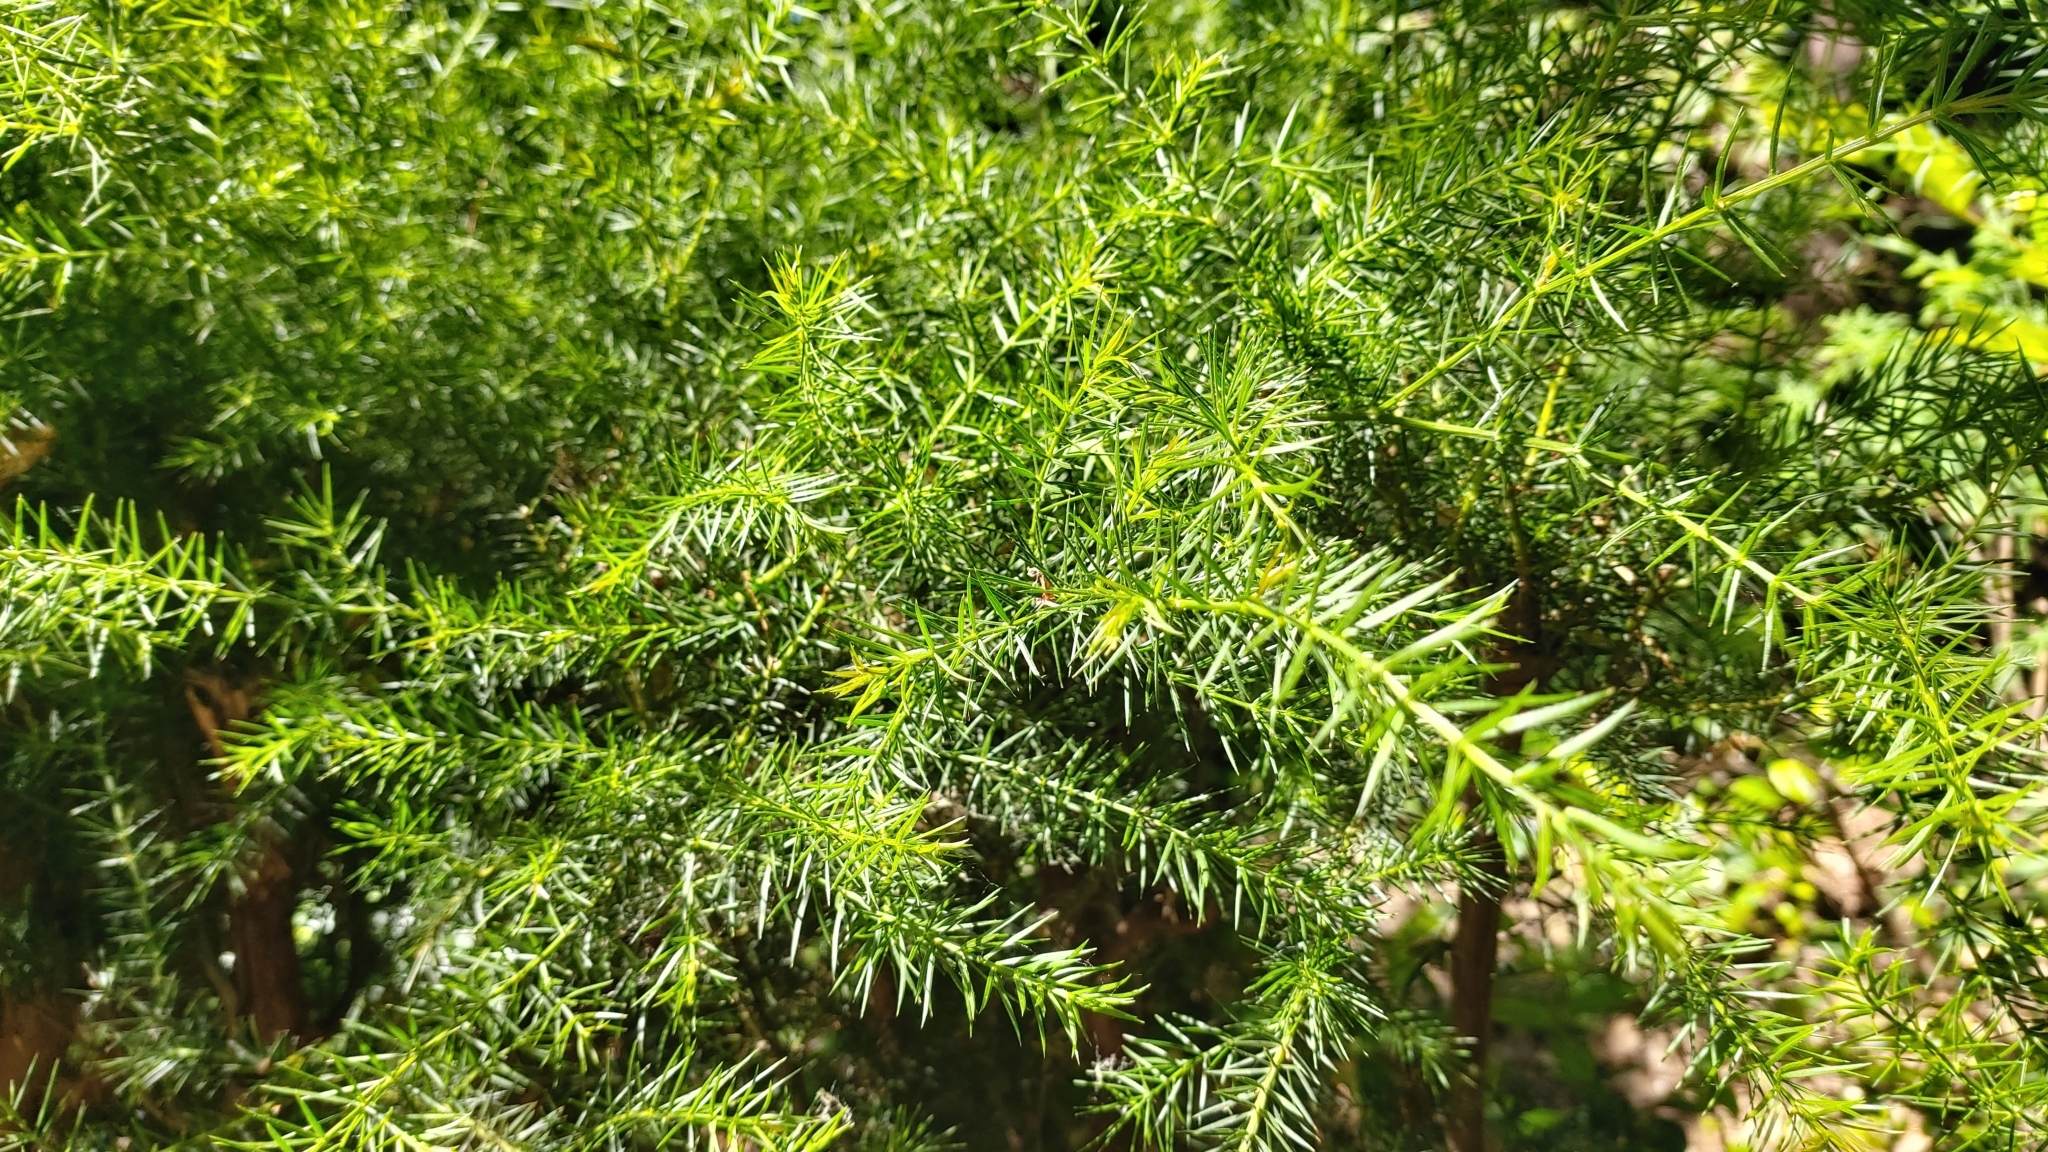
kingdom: Plantae
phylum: Tracheophyta
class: Magnoliopsida
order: Fabales
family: Fabaceae
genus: Acacia
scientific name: Acacia verticillata
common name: Prickly moses
